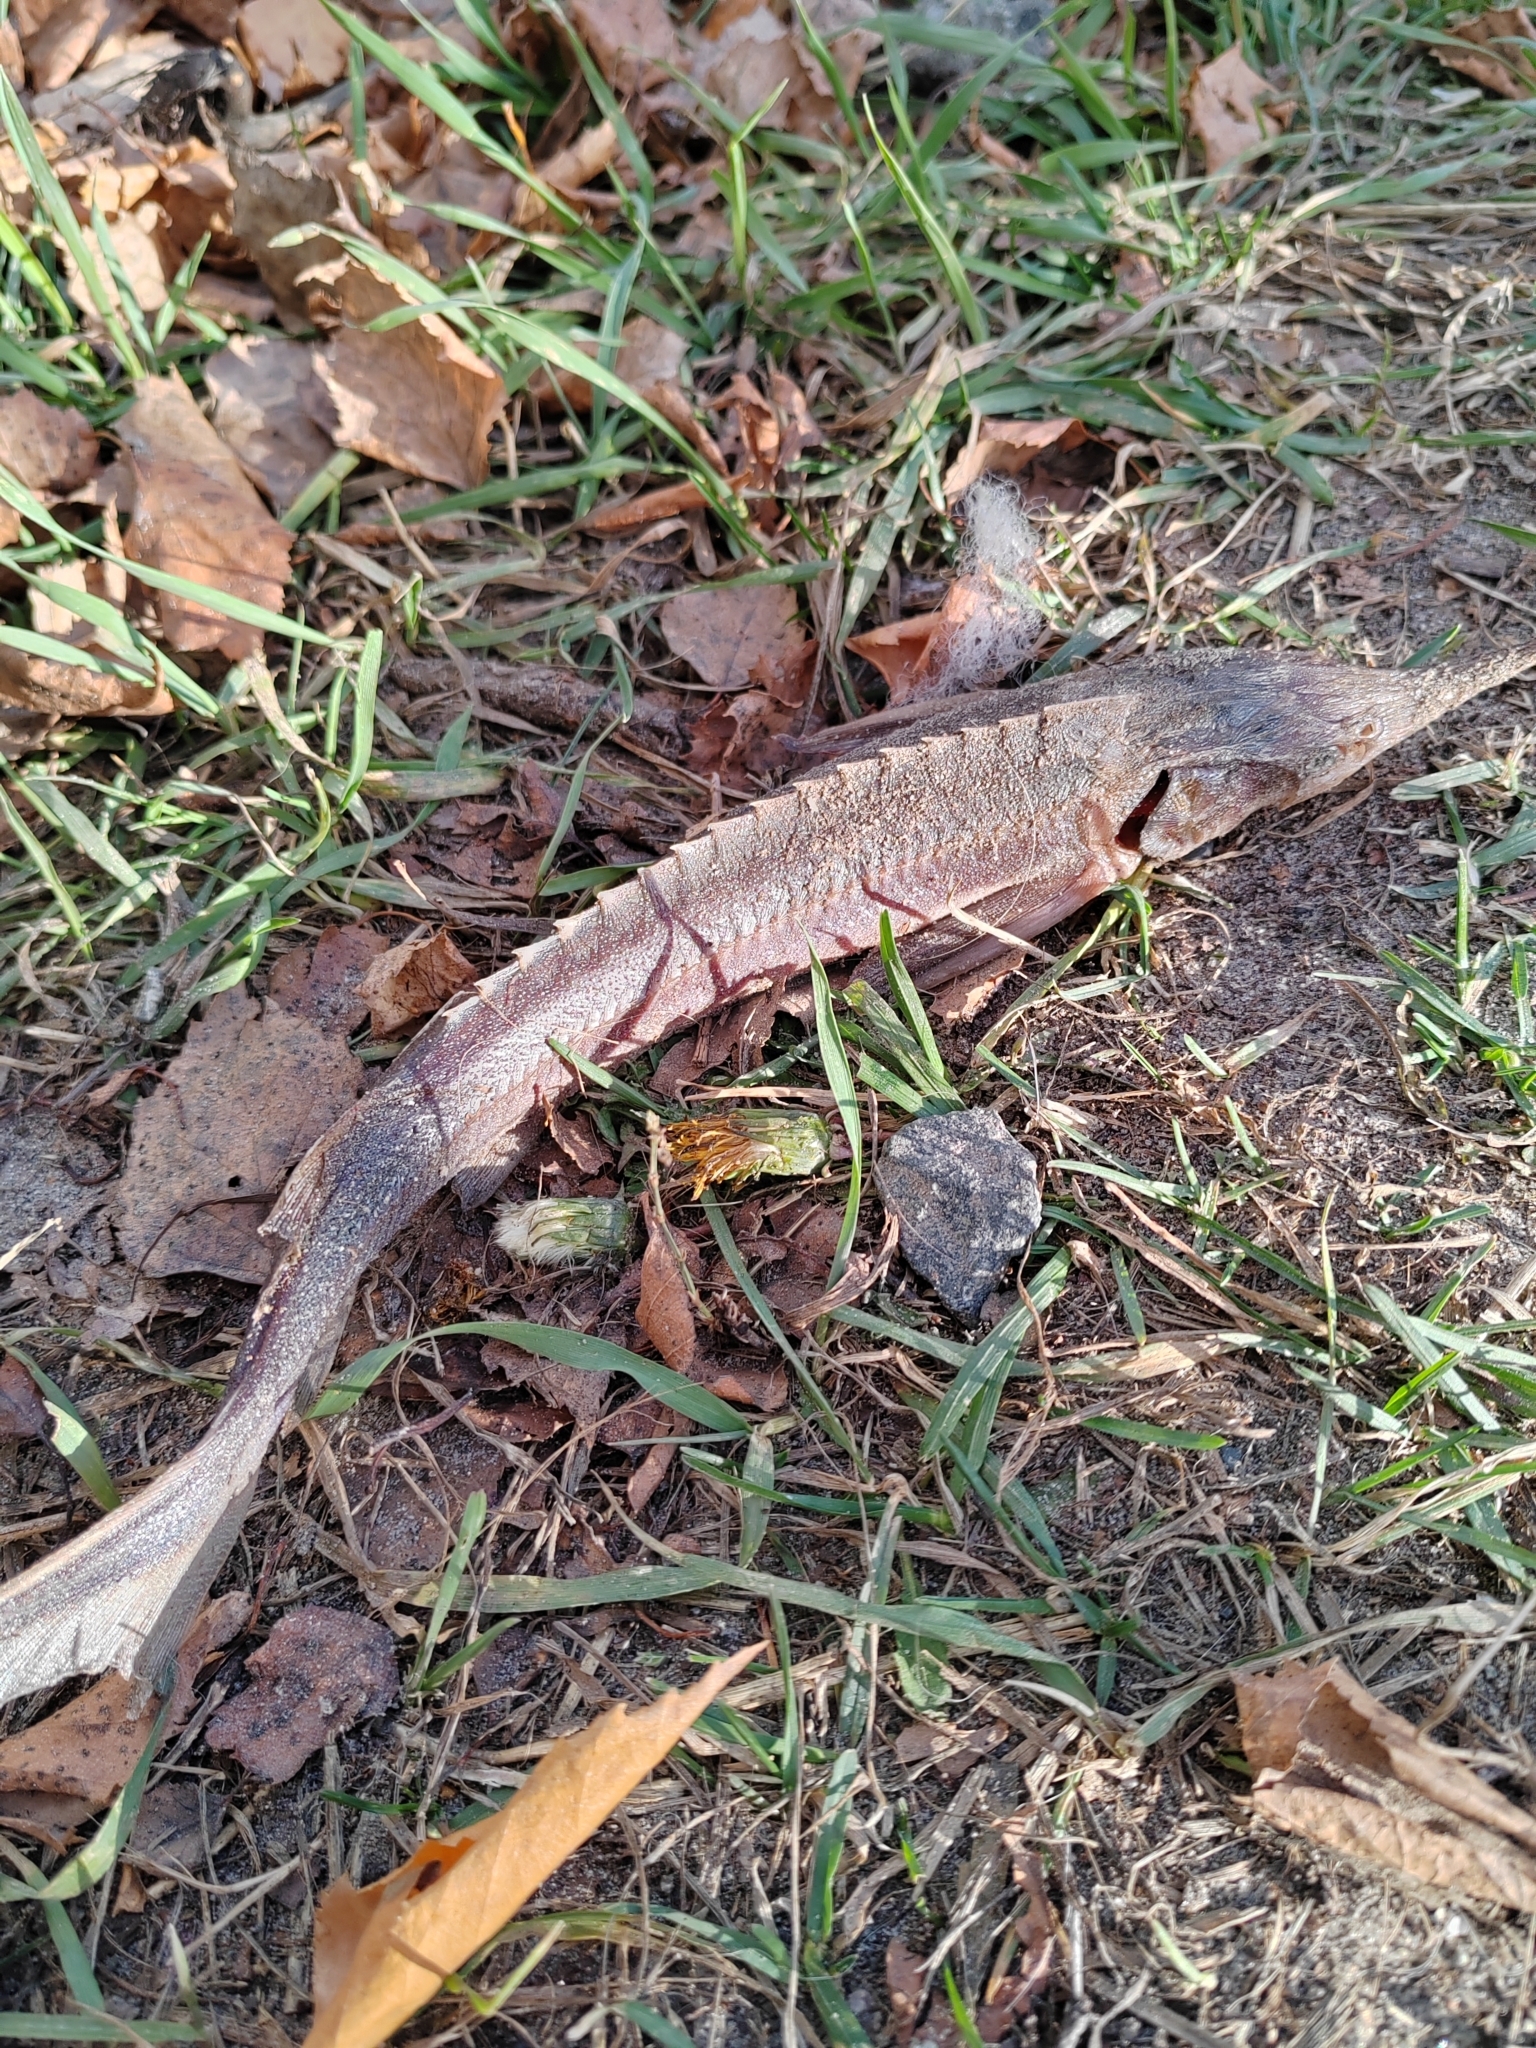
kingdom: Animalia
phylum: Chordata
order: Acipenseriformes
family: Acipenseridae
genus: Acipenser
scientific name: Acipenser ruthenus
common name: Sterlet
